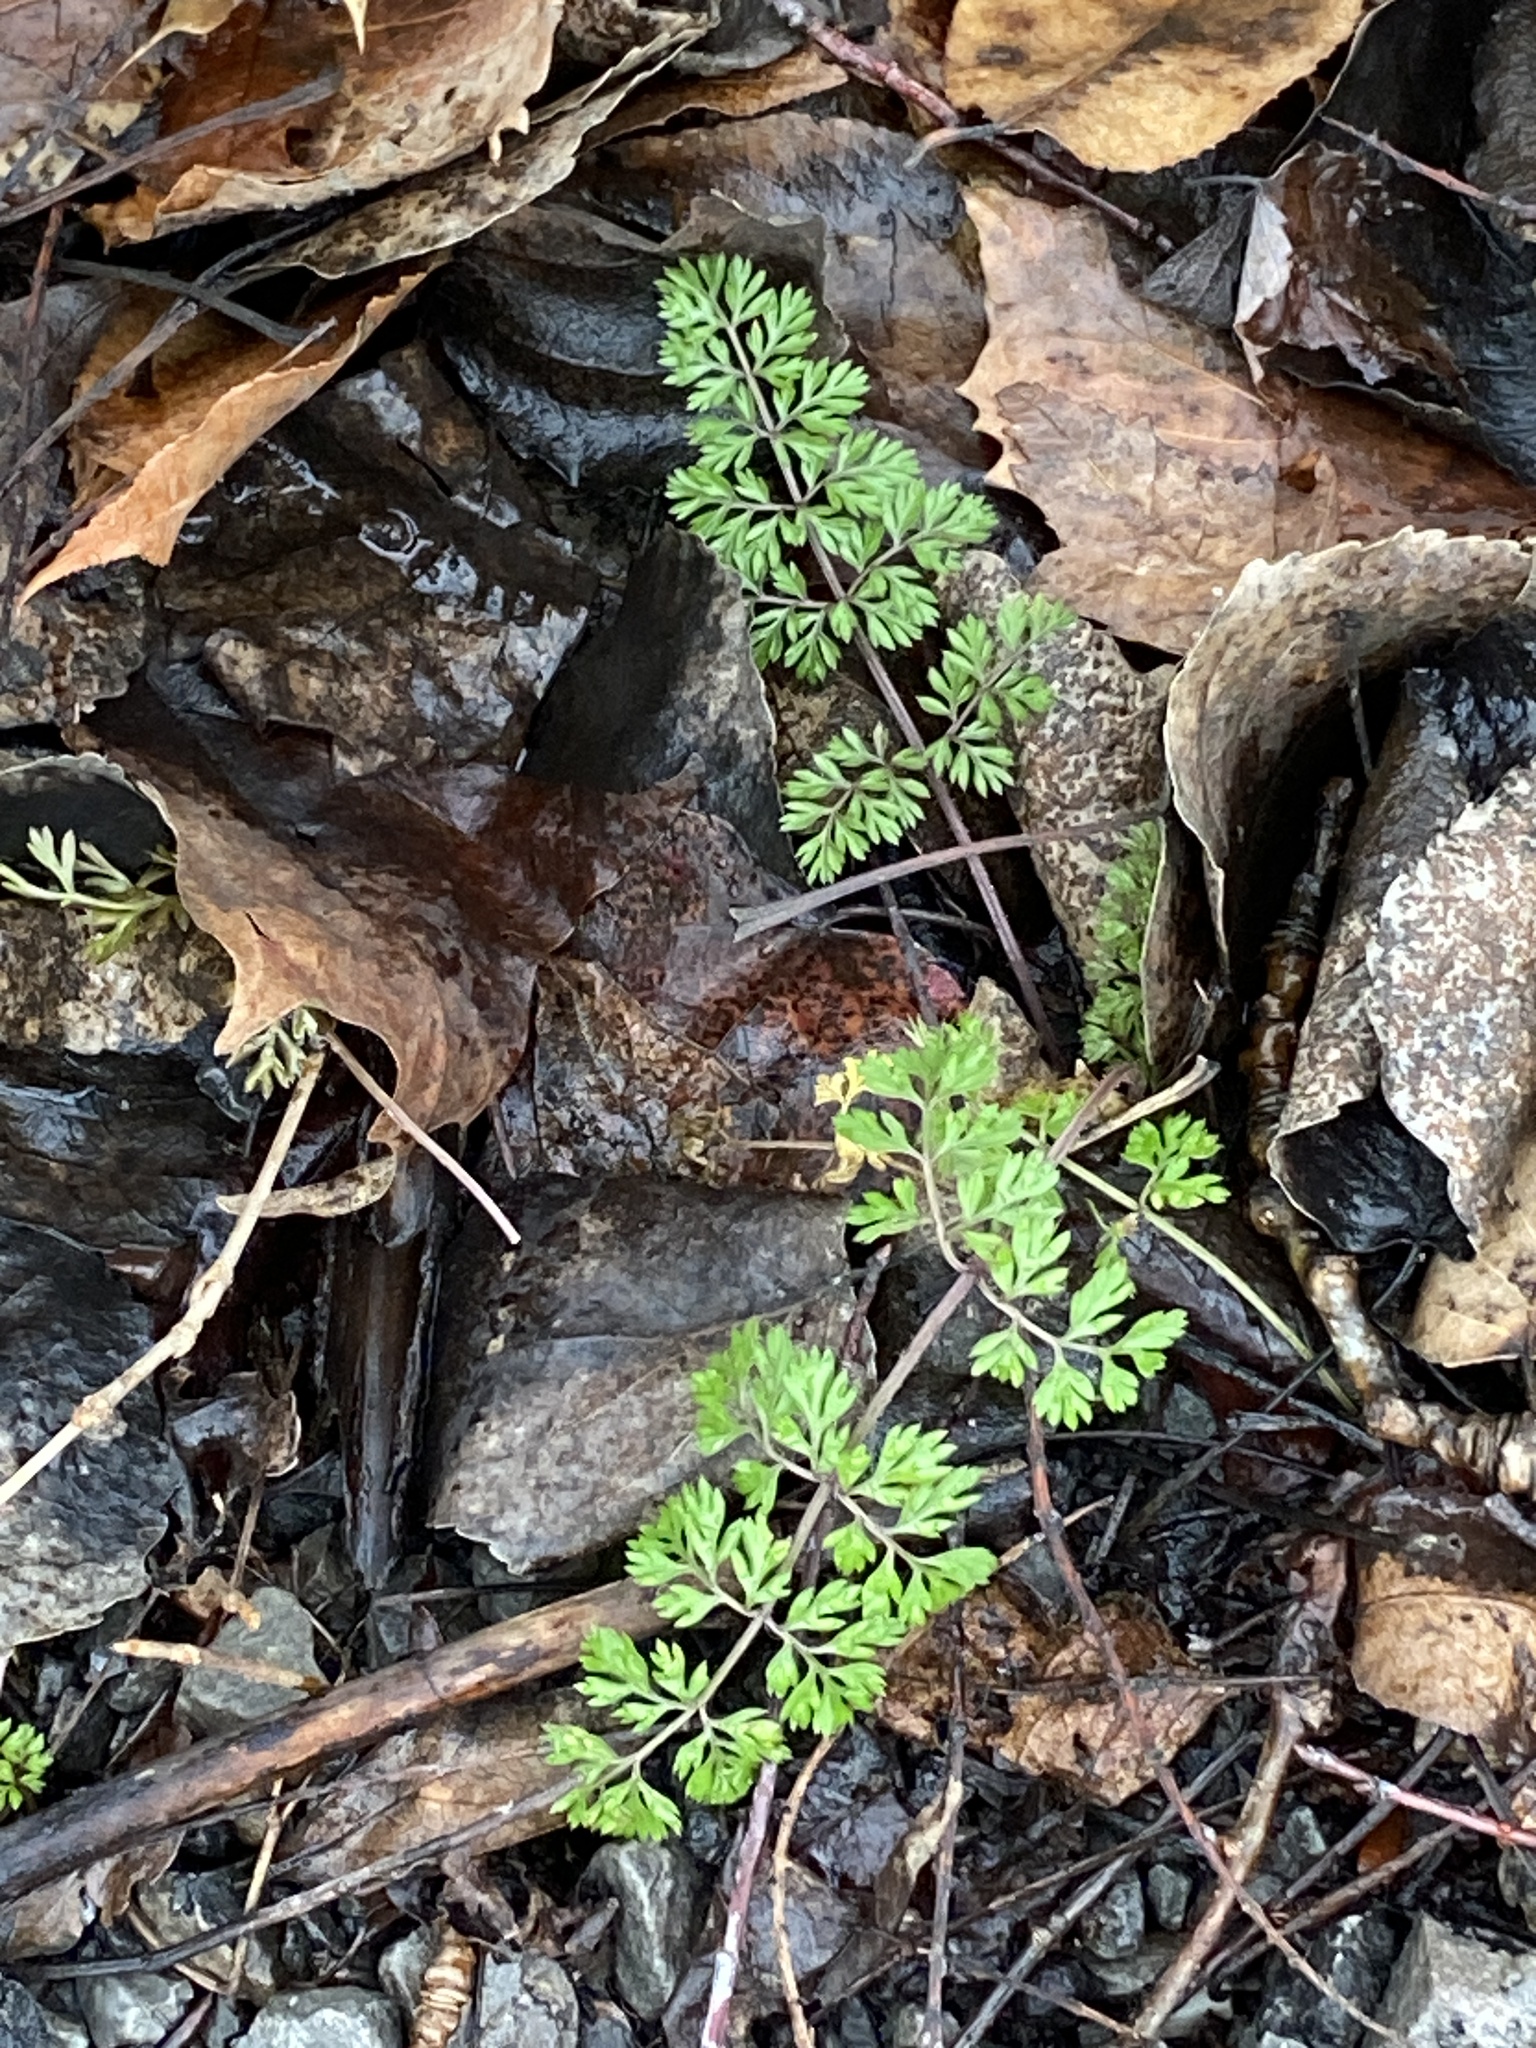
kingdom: Plantae
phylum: Tracheophyta
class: Magnoliopsida
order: Apiales
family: Apiaceae
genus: Daucus
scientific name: Daucus carota
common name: Wild carrot
